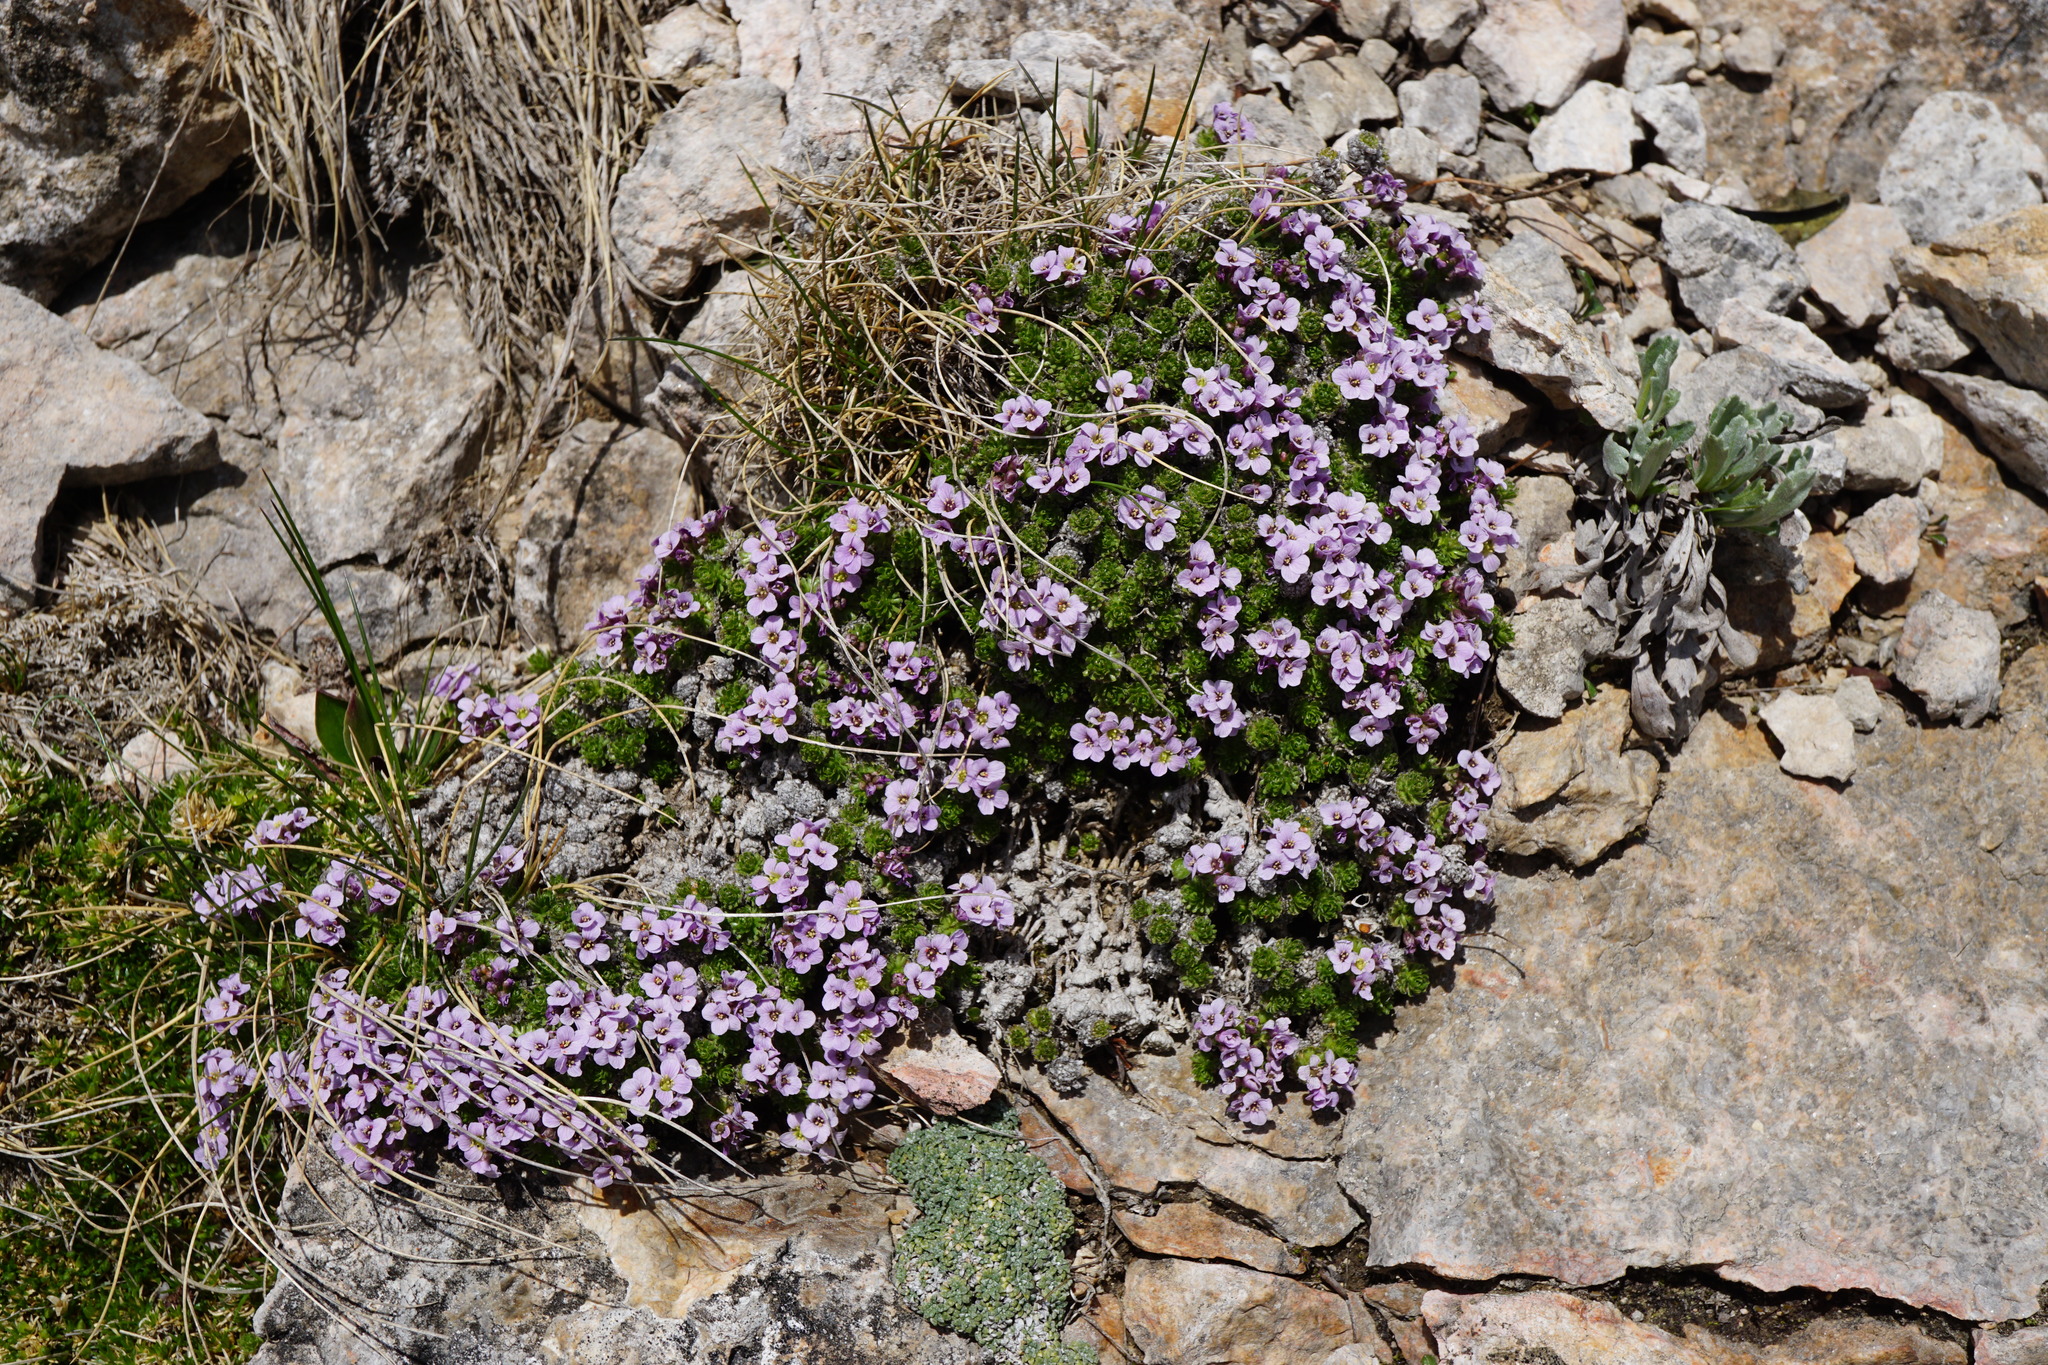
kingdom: Plantae
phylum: Tracheophyta
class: Magnoliopsida
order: Brassicales
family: Brassicaceae
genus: Petrocallis
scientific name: Petrocallis pyrenaica
